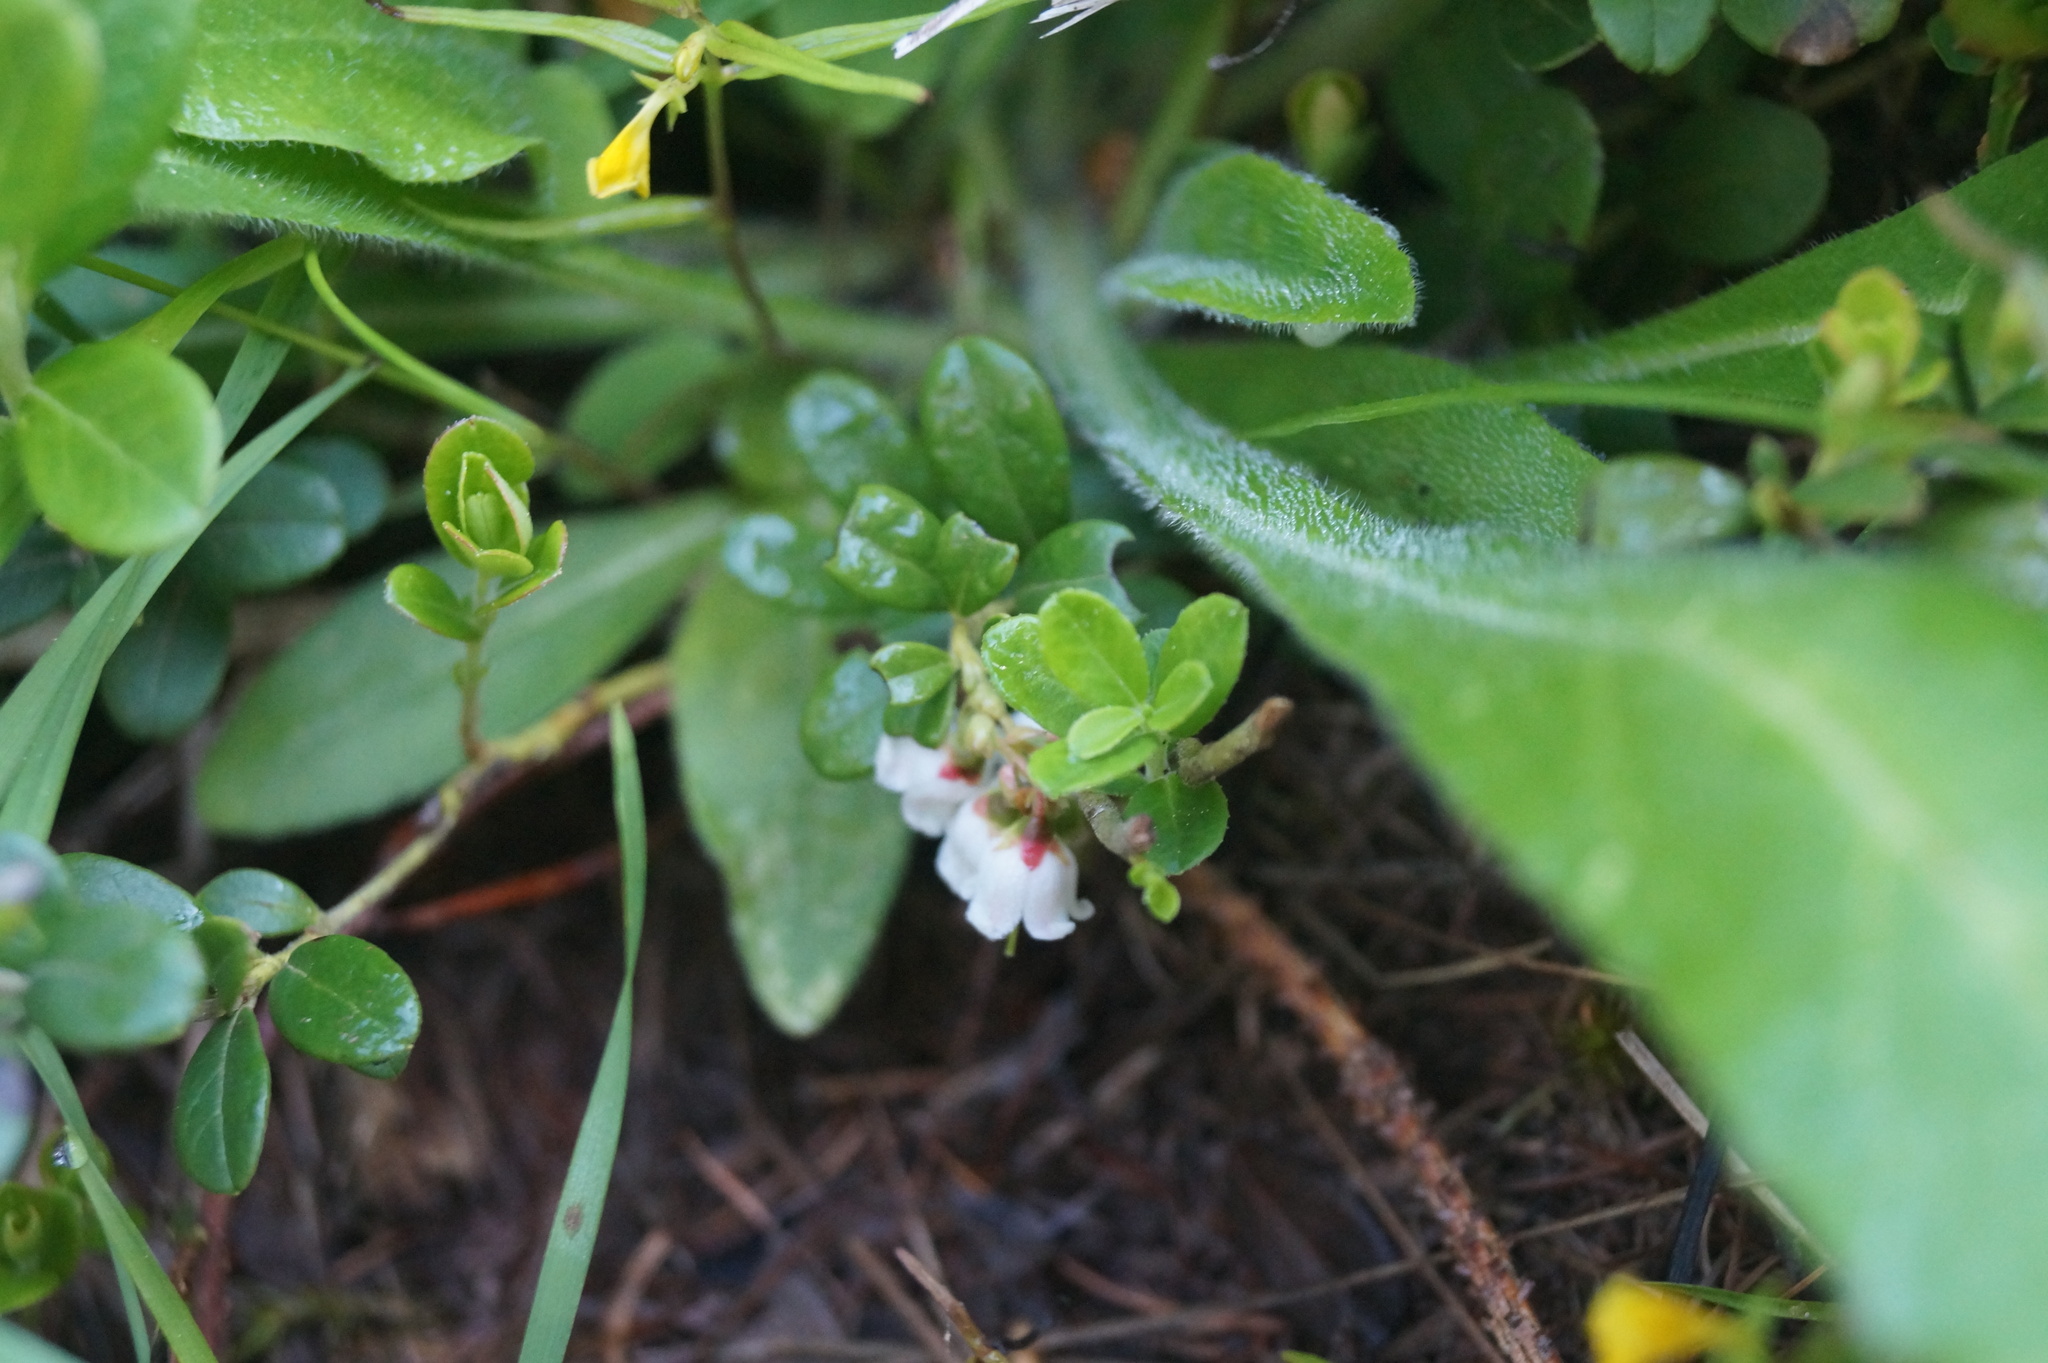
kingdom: Plantae
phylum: Tracheophyta
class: Magnoliopsida
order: Ericales
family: Ericaceae
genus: Vaccinium
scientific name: Vaccinium vitis-idaea
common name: Cowberry
